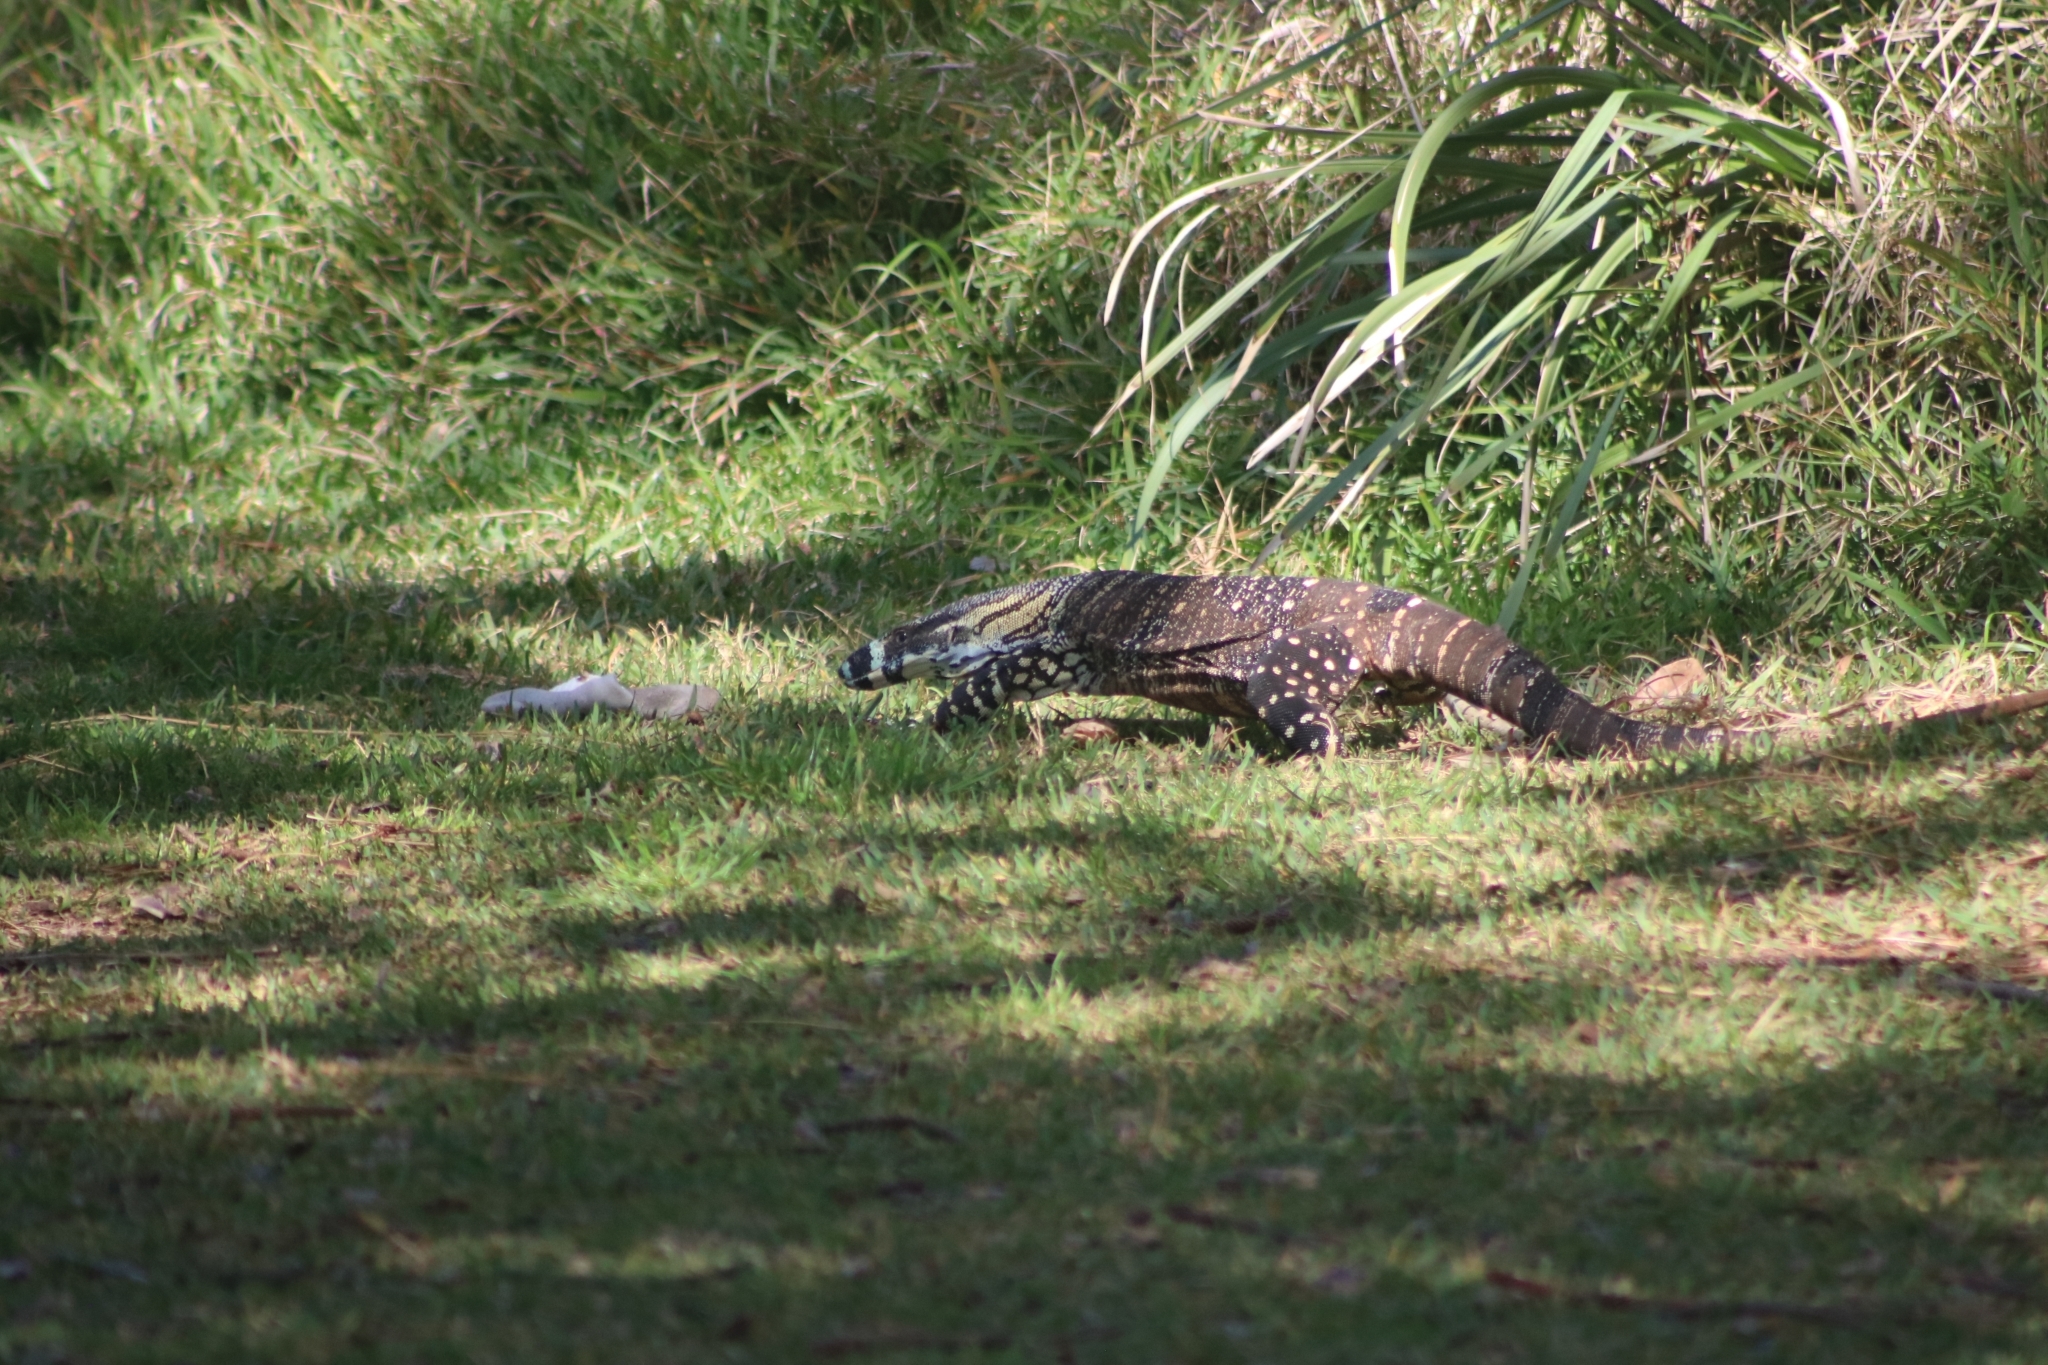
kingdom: Animalia
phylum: Chordata
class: Squamata
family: Varanidae
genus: Varanus
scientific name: Varanus varius
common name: Lace monitor
